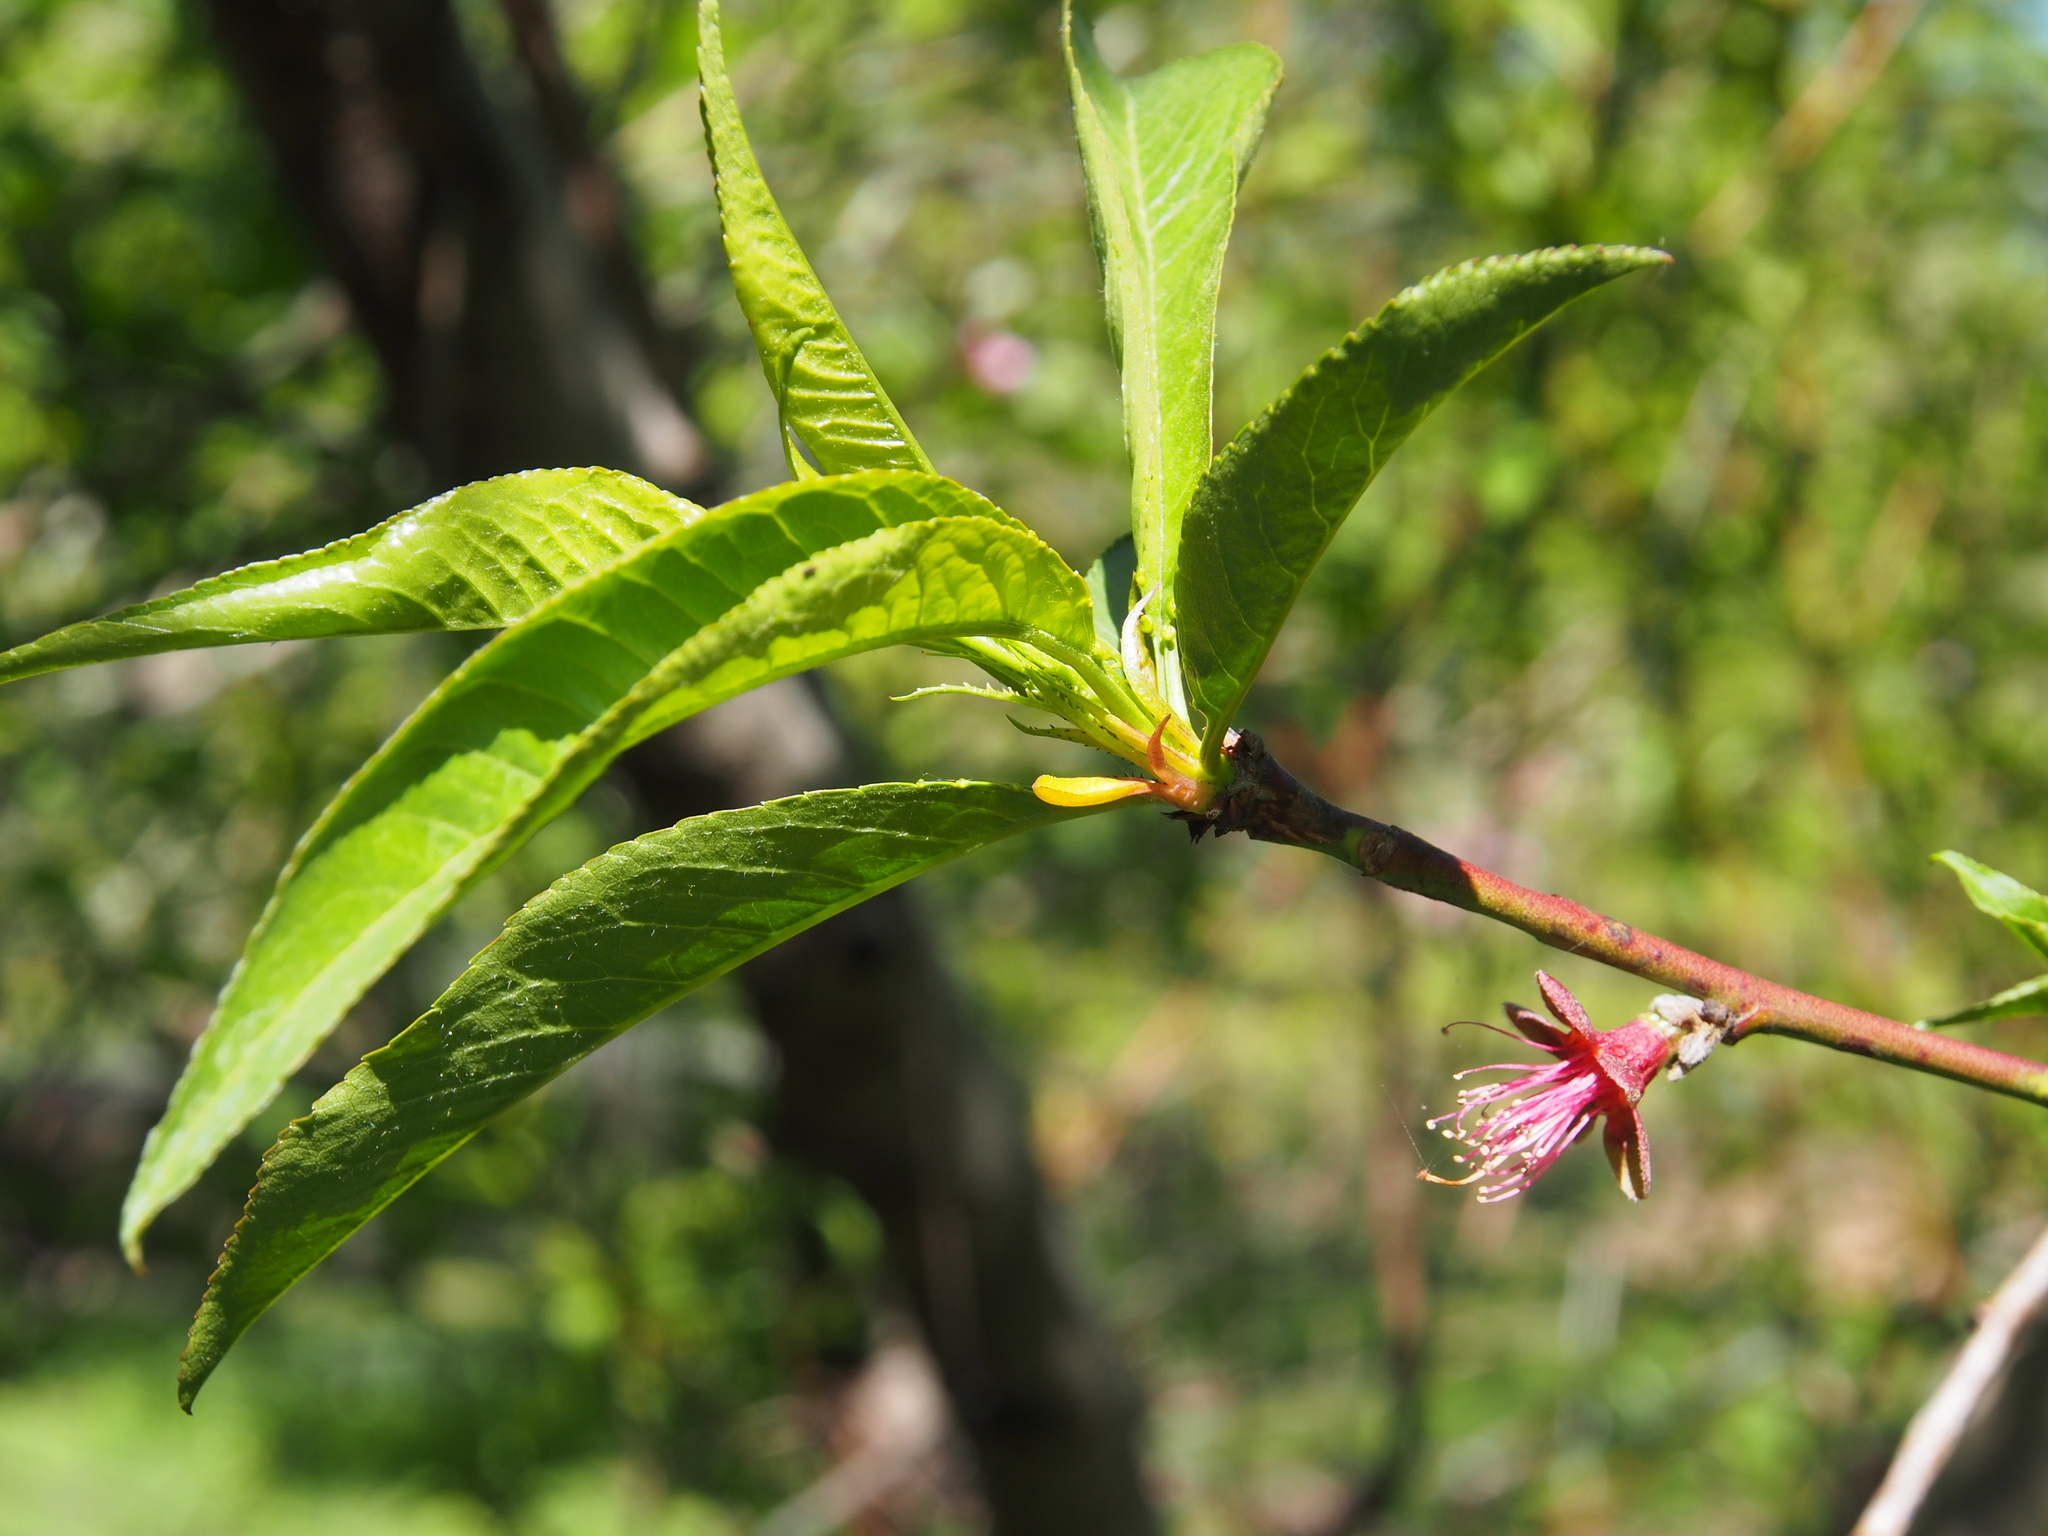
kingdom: Plantae
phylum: Tracheophyta
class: Magnoliopsida
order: Rosales
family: Rosaceae
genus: Prunus
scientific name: Prunus persica
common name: Peach
